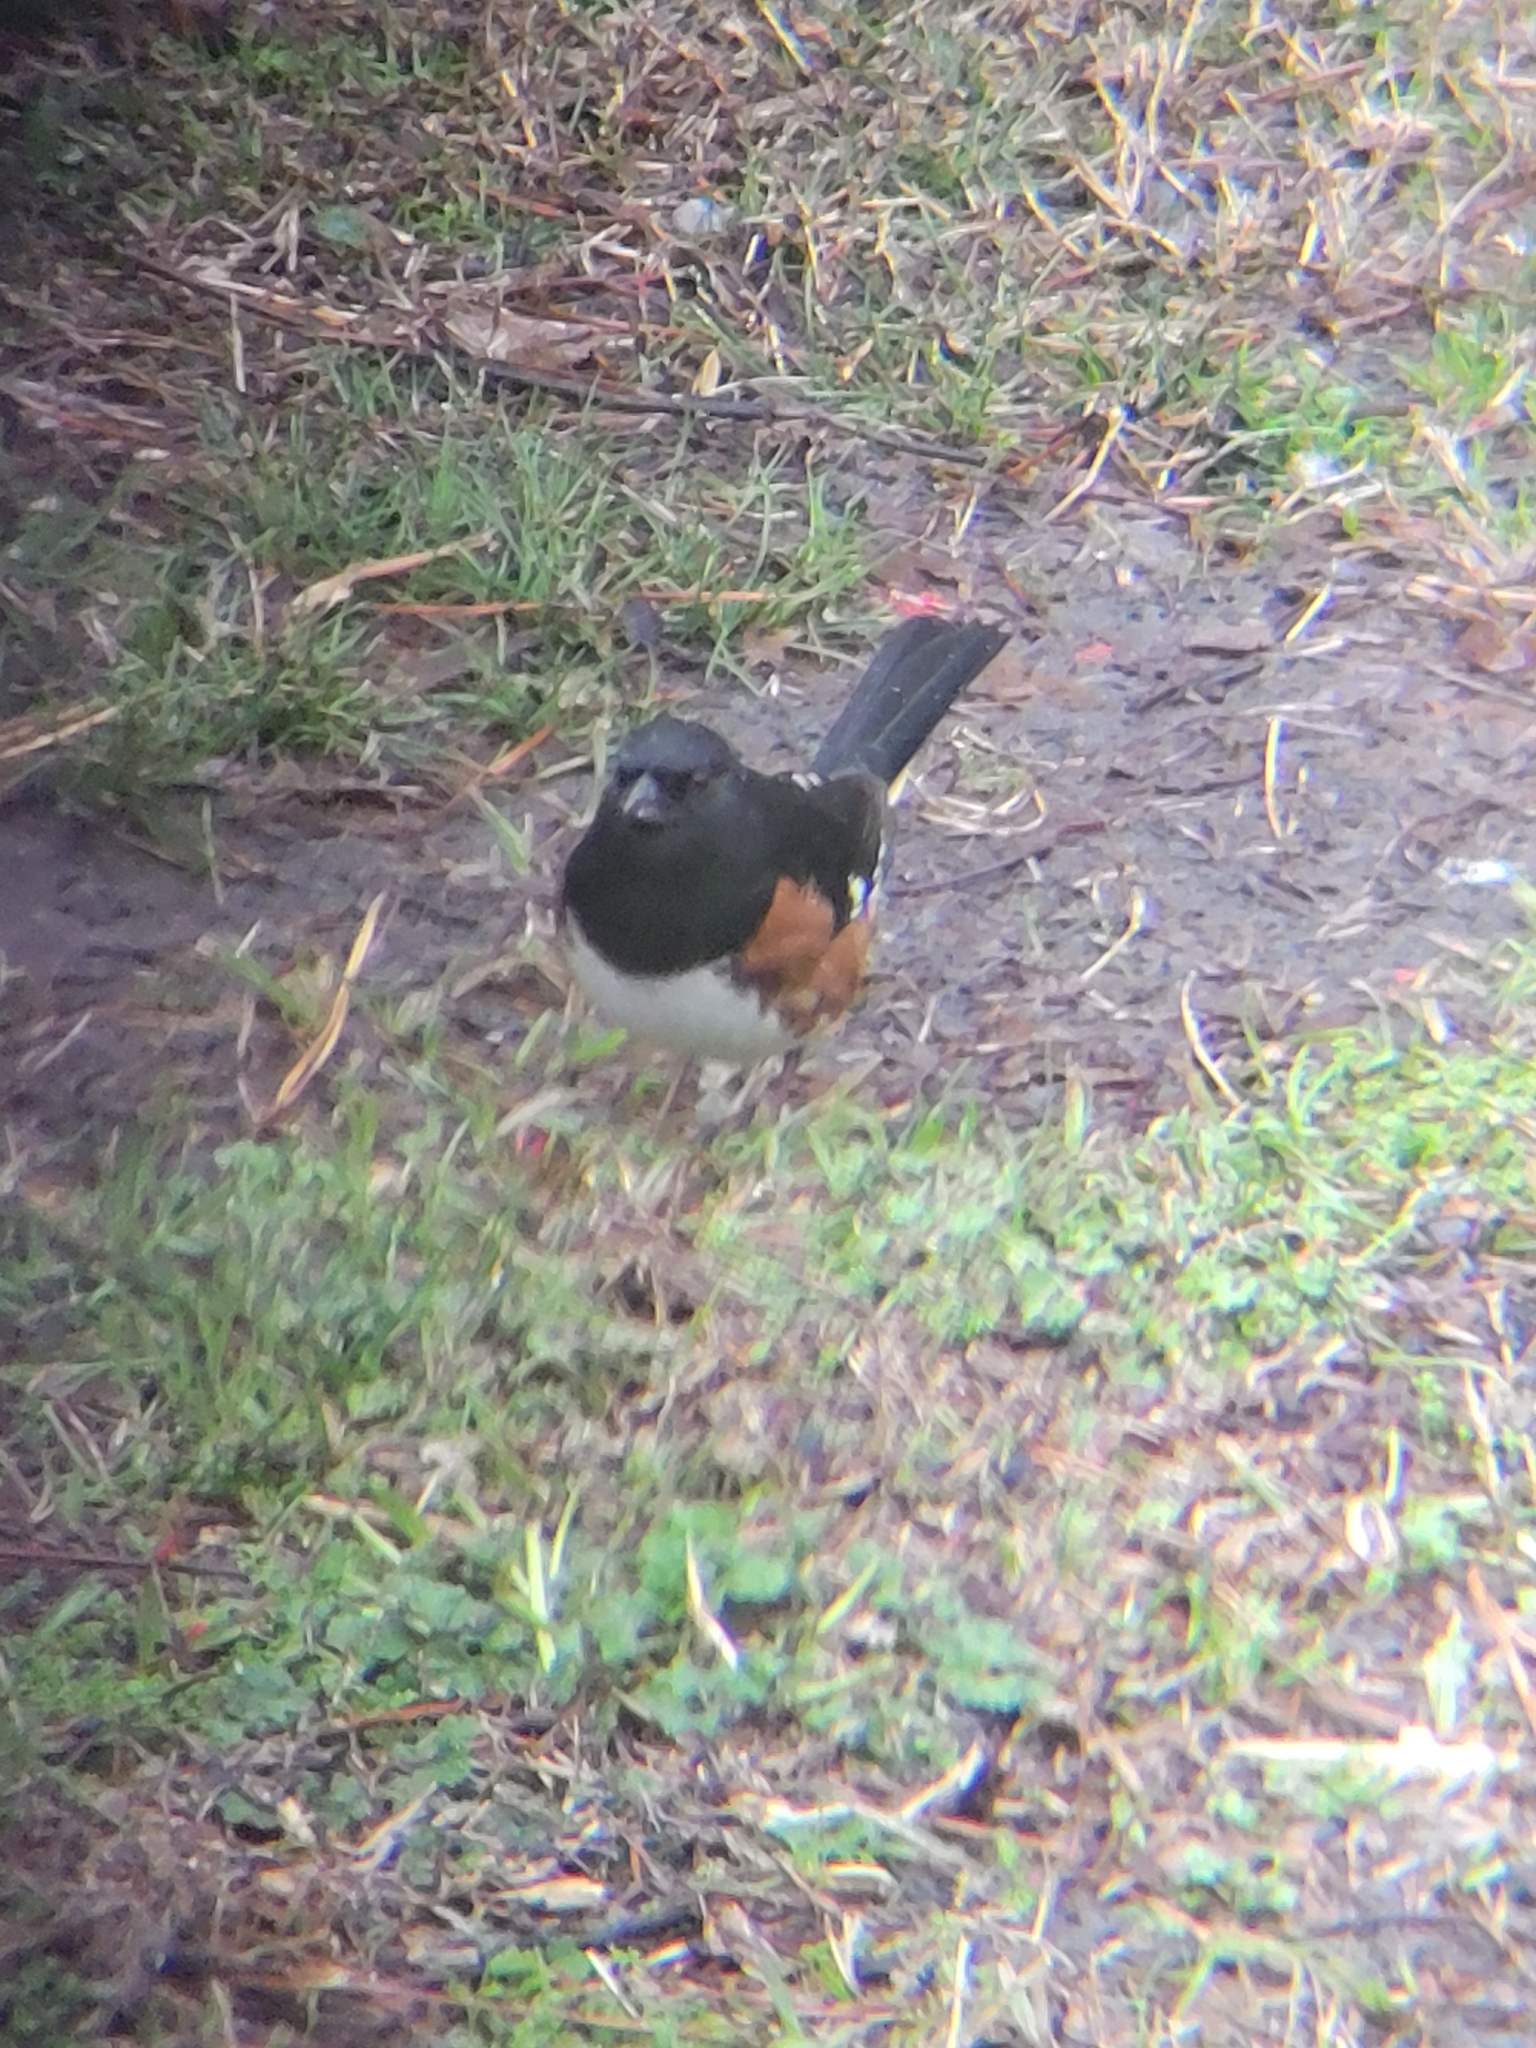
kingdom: Animalia
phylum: Chordata
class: Aves
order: Passeriformes
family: Passerellidae
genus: Pipilo
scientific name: Pipilo erythrophthalmus
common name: Eastern towhee
